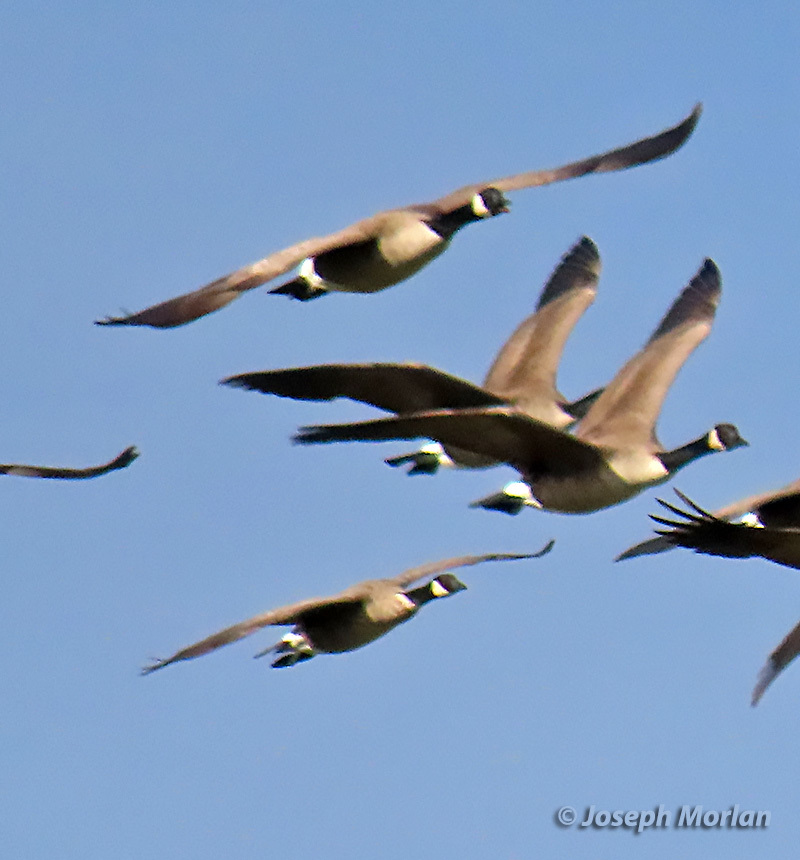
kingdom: Animalia
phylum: Chordata
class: Aves
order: Anseriformes
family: Anatidae
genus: Branta
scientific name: Branta hutchinsii
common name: Cackling goose
